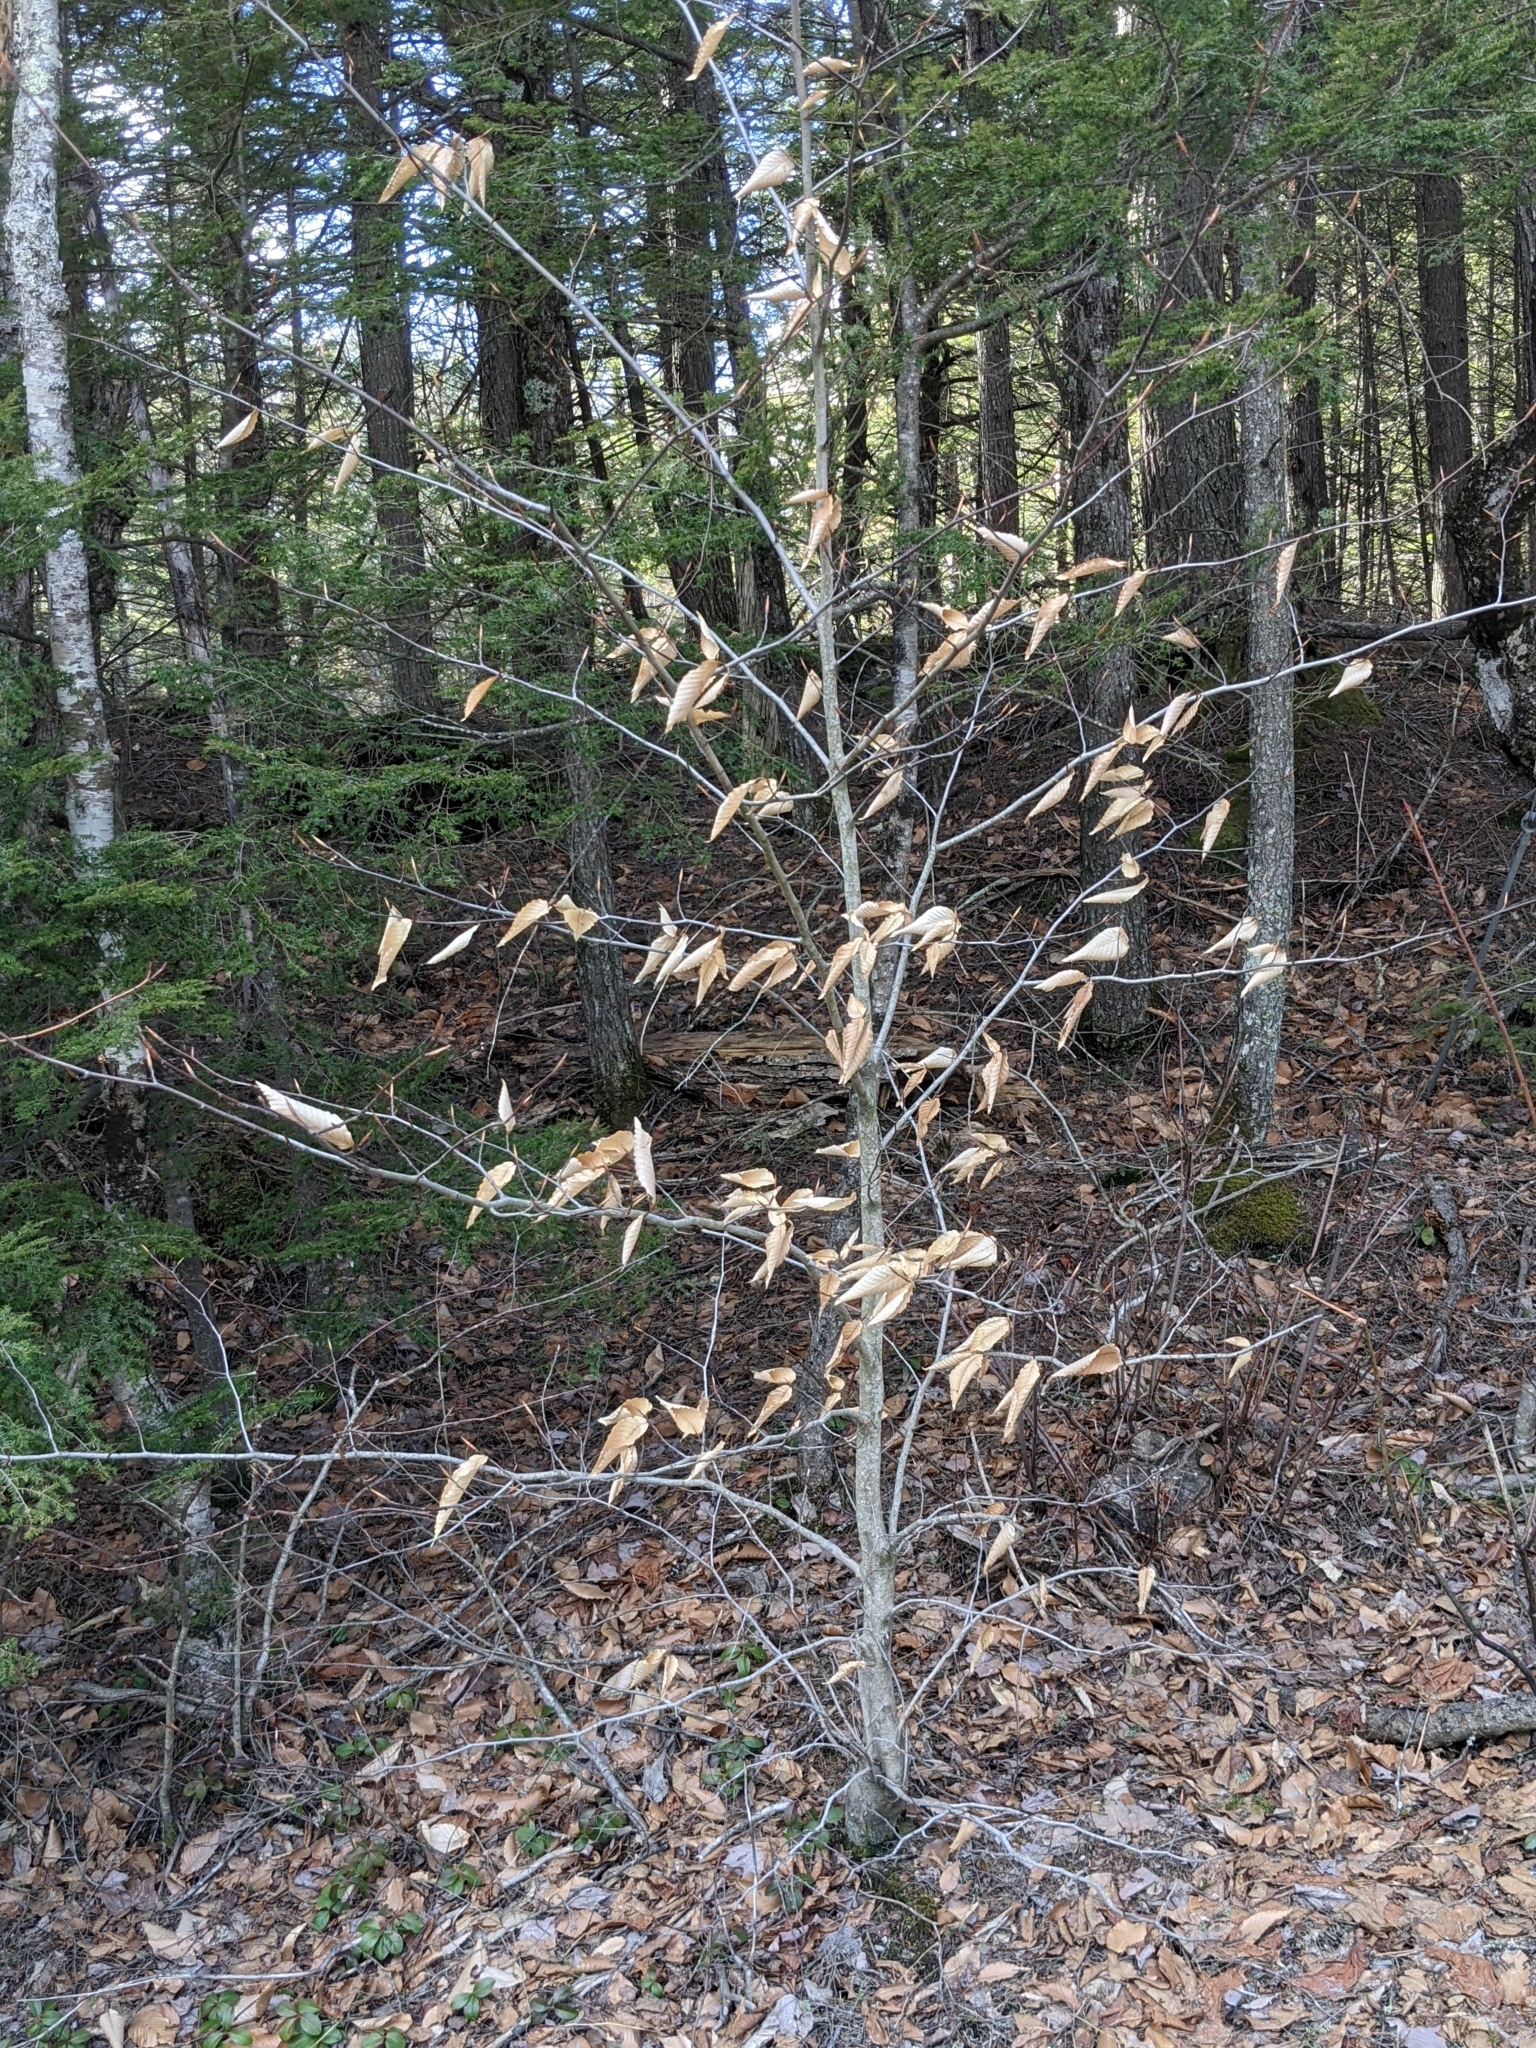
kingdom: Plantae
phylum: Tracheophyta
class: Magnoliopsida
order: Fagales
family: Fagaceae
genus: Fagus
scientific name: Fagus grandifolia
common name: American beech
